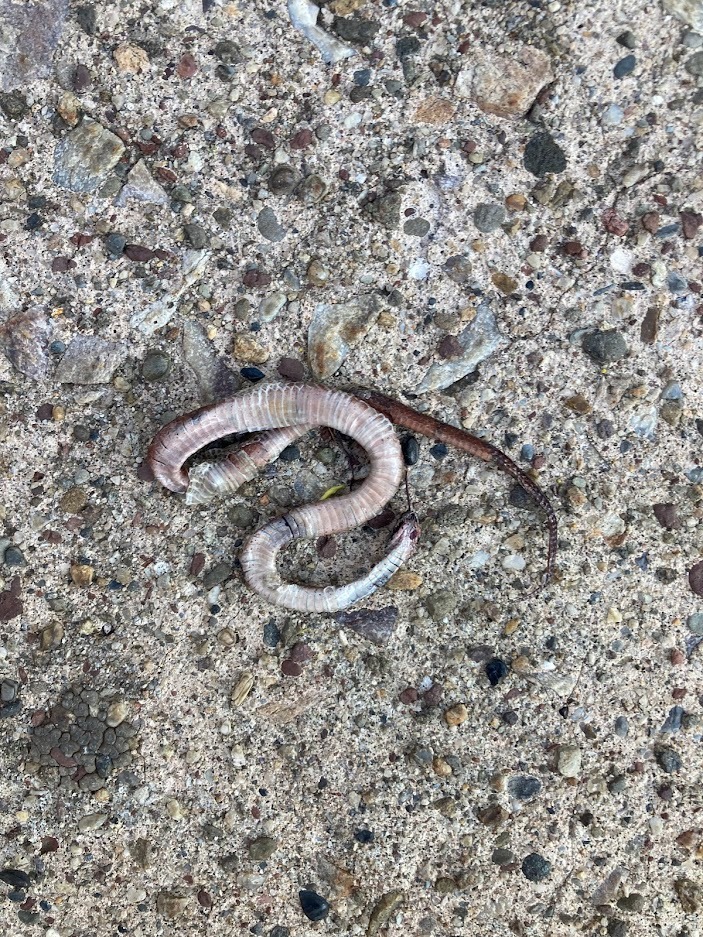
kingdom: Animalia
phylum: Chordata
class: Squamata
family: Colubridae
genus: Storeria
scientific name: Storeria dekayi
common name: (dekay’s) brown snake
